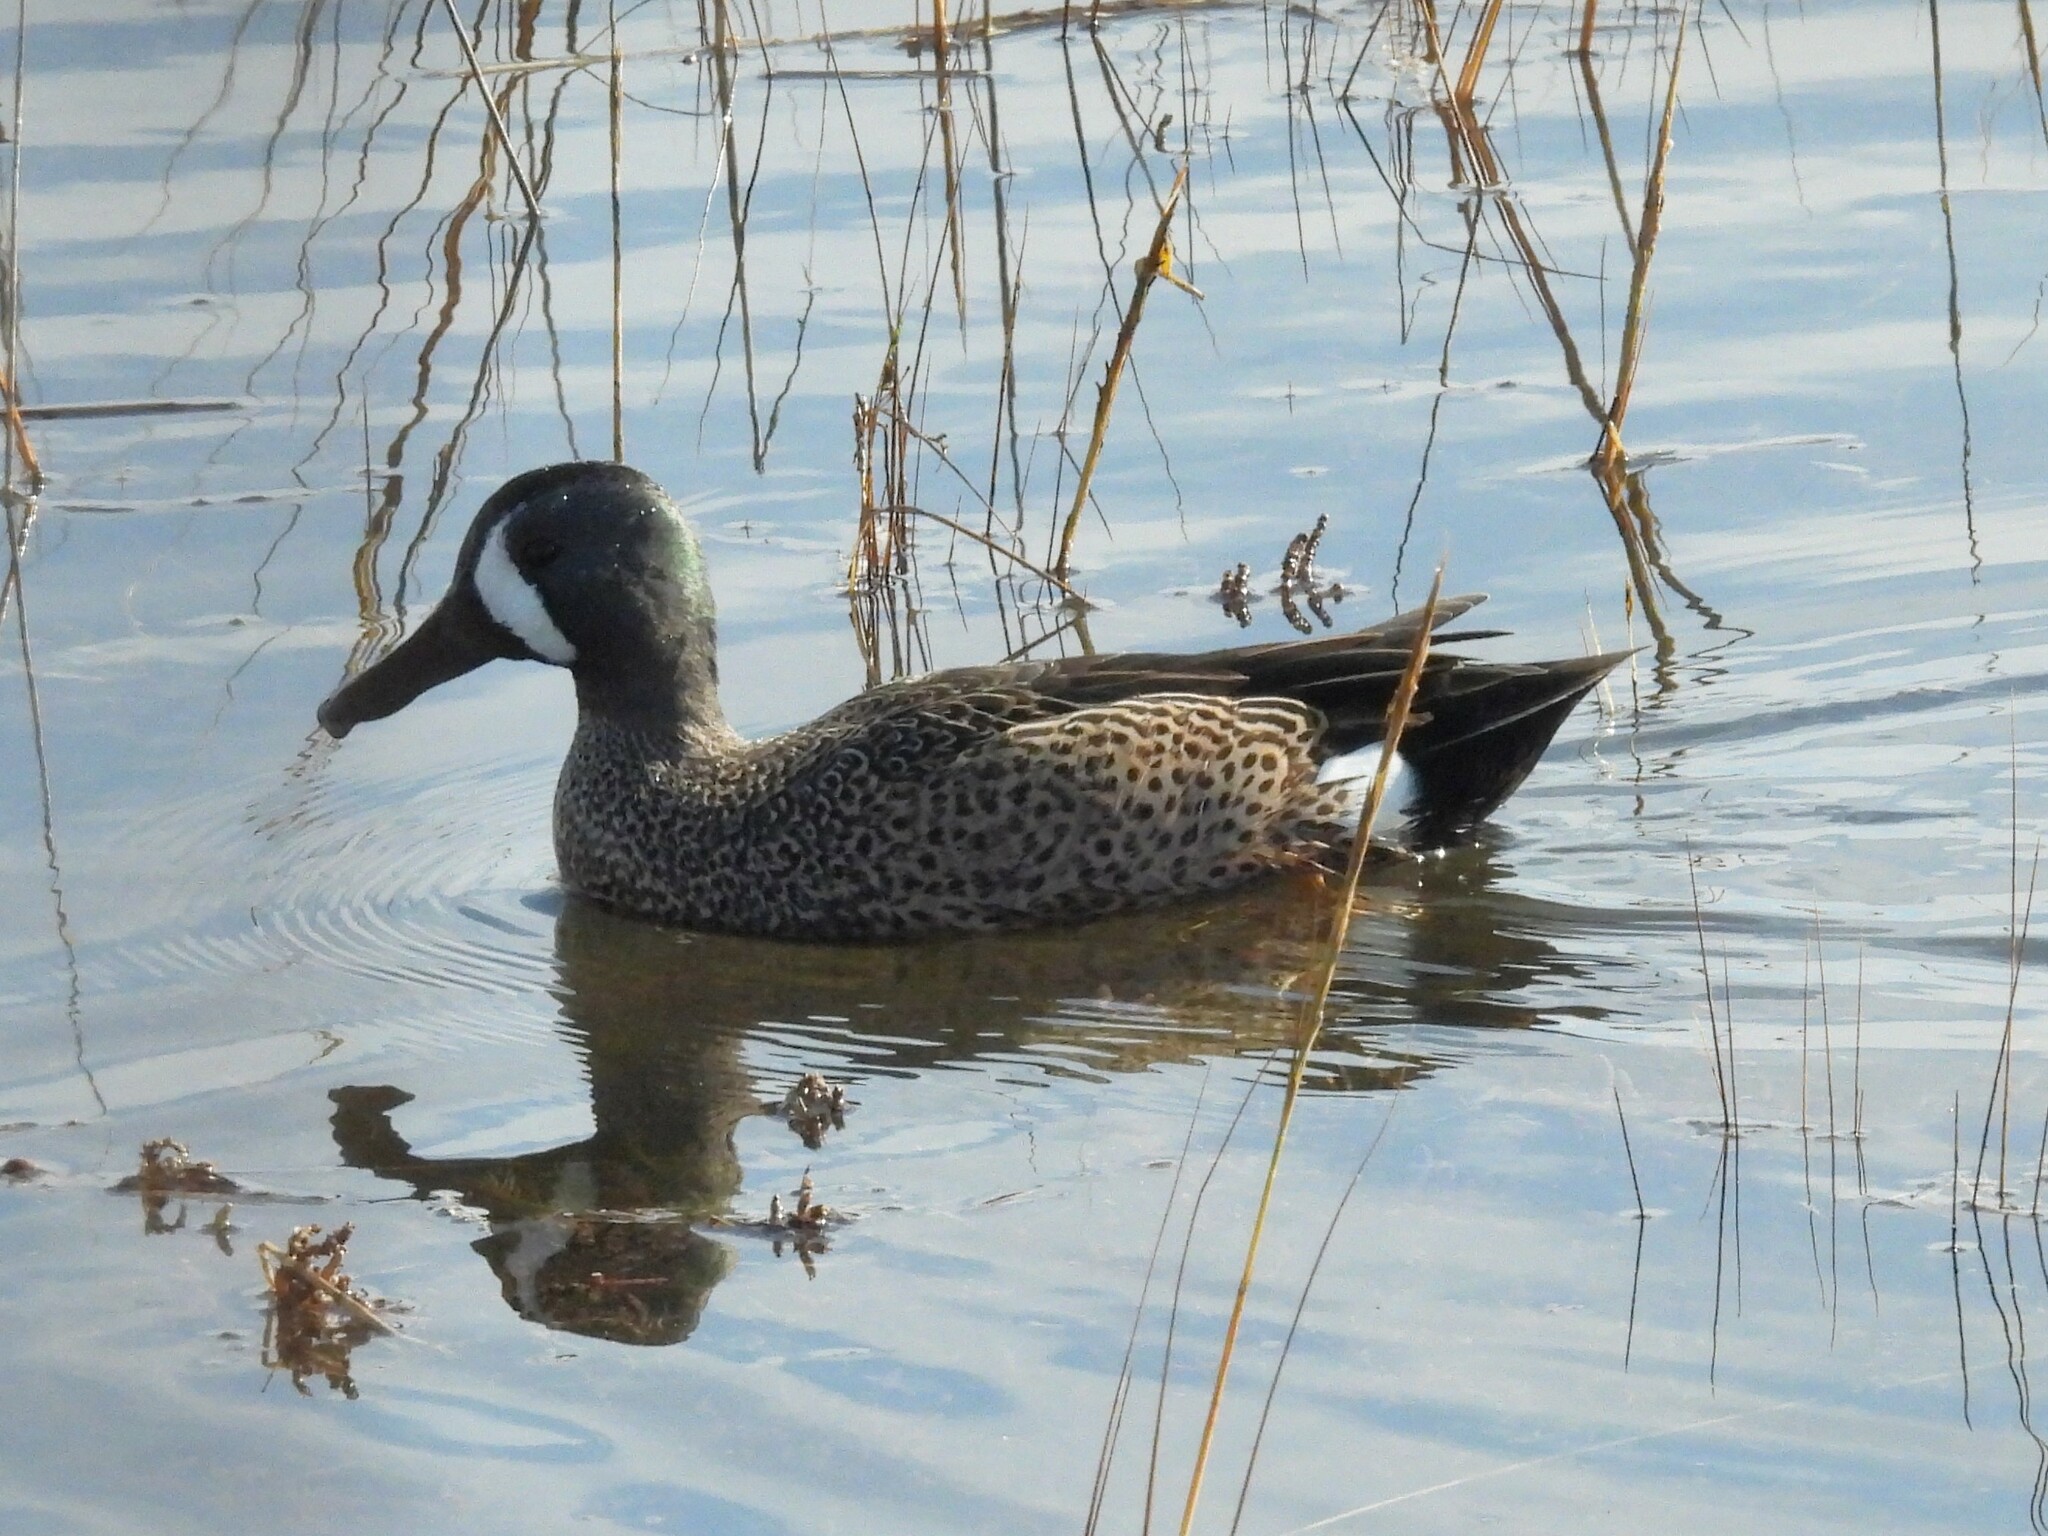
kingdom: Animalia
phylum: Chordata
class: Aves
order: Anseriformes
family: Anatidae
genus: Spatula
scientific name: Spatula discors
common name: Blue-winged teal
